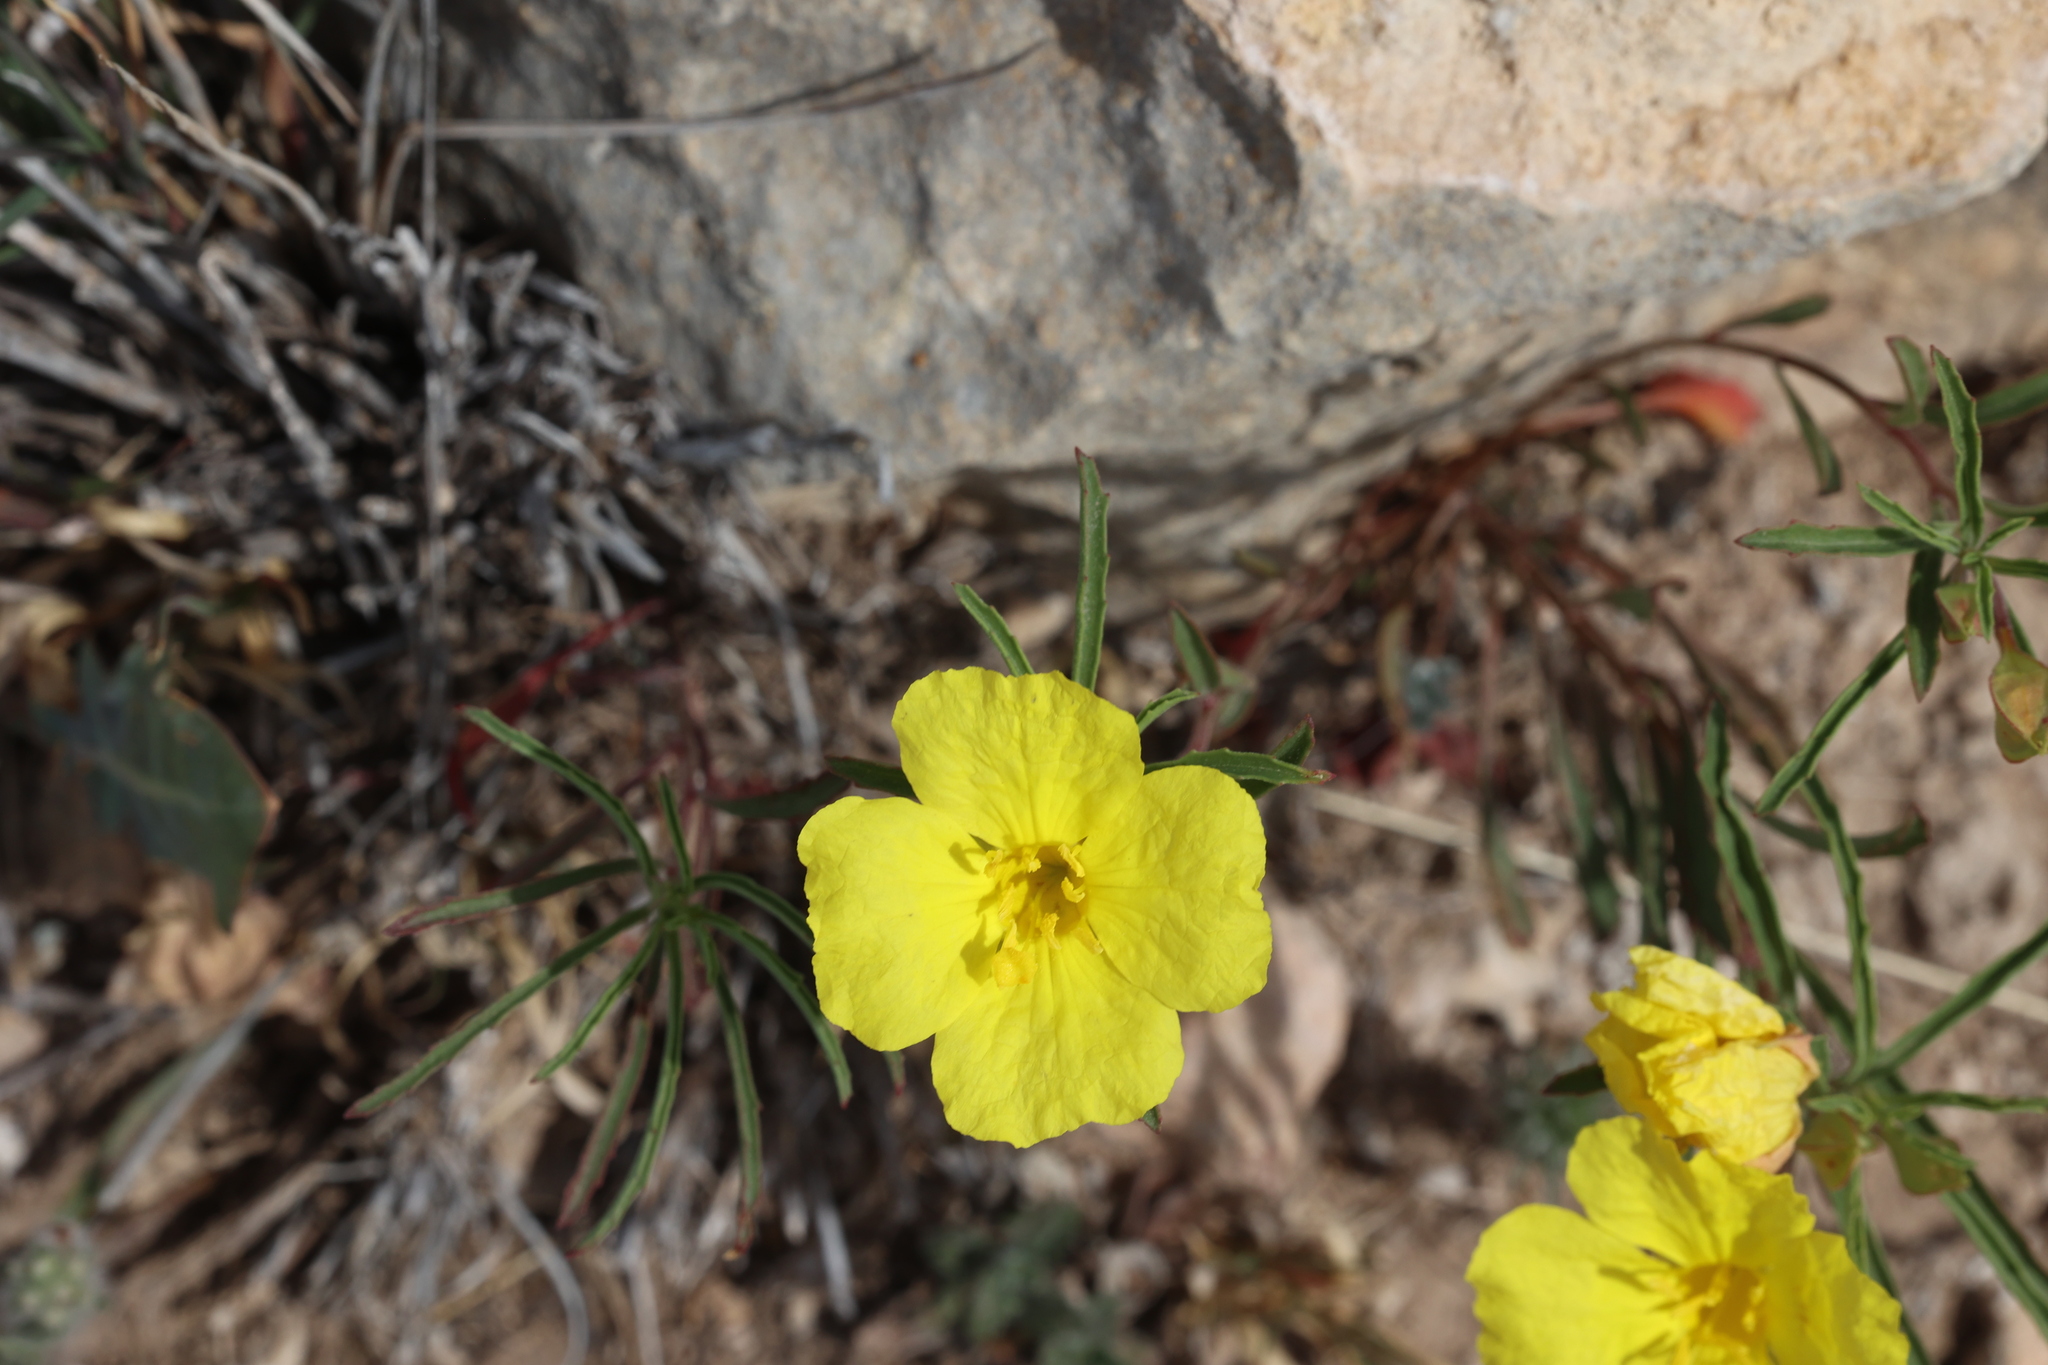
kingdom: Plantae
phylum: Tracheophyta
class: Magnoliopsida
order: Myrtales
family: Onagraceae
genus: Oenothera
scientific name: Oenothera
